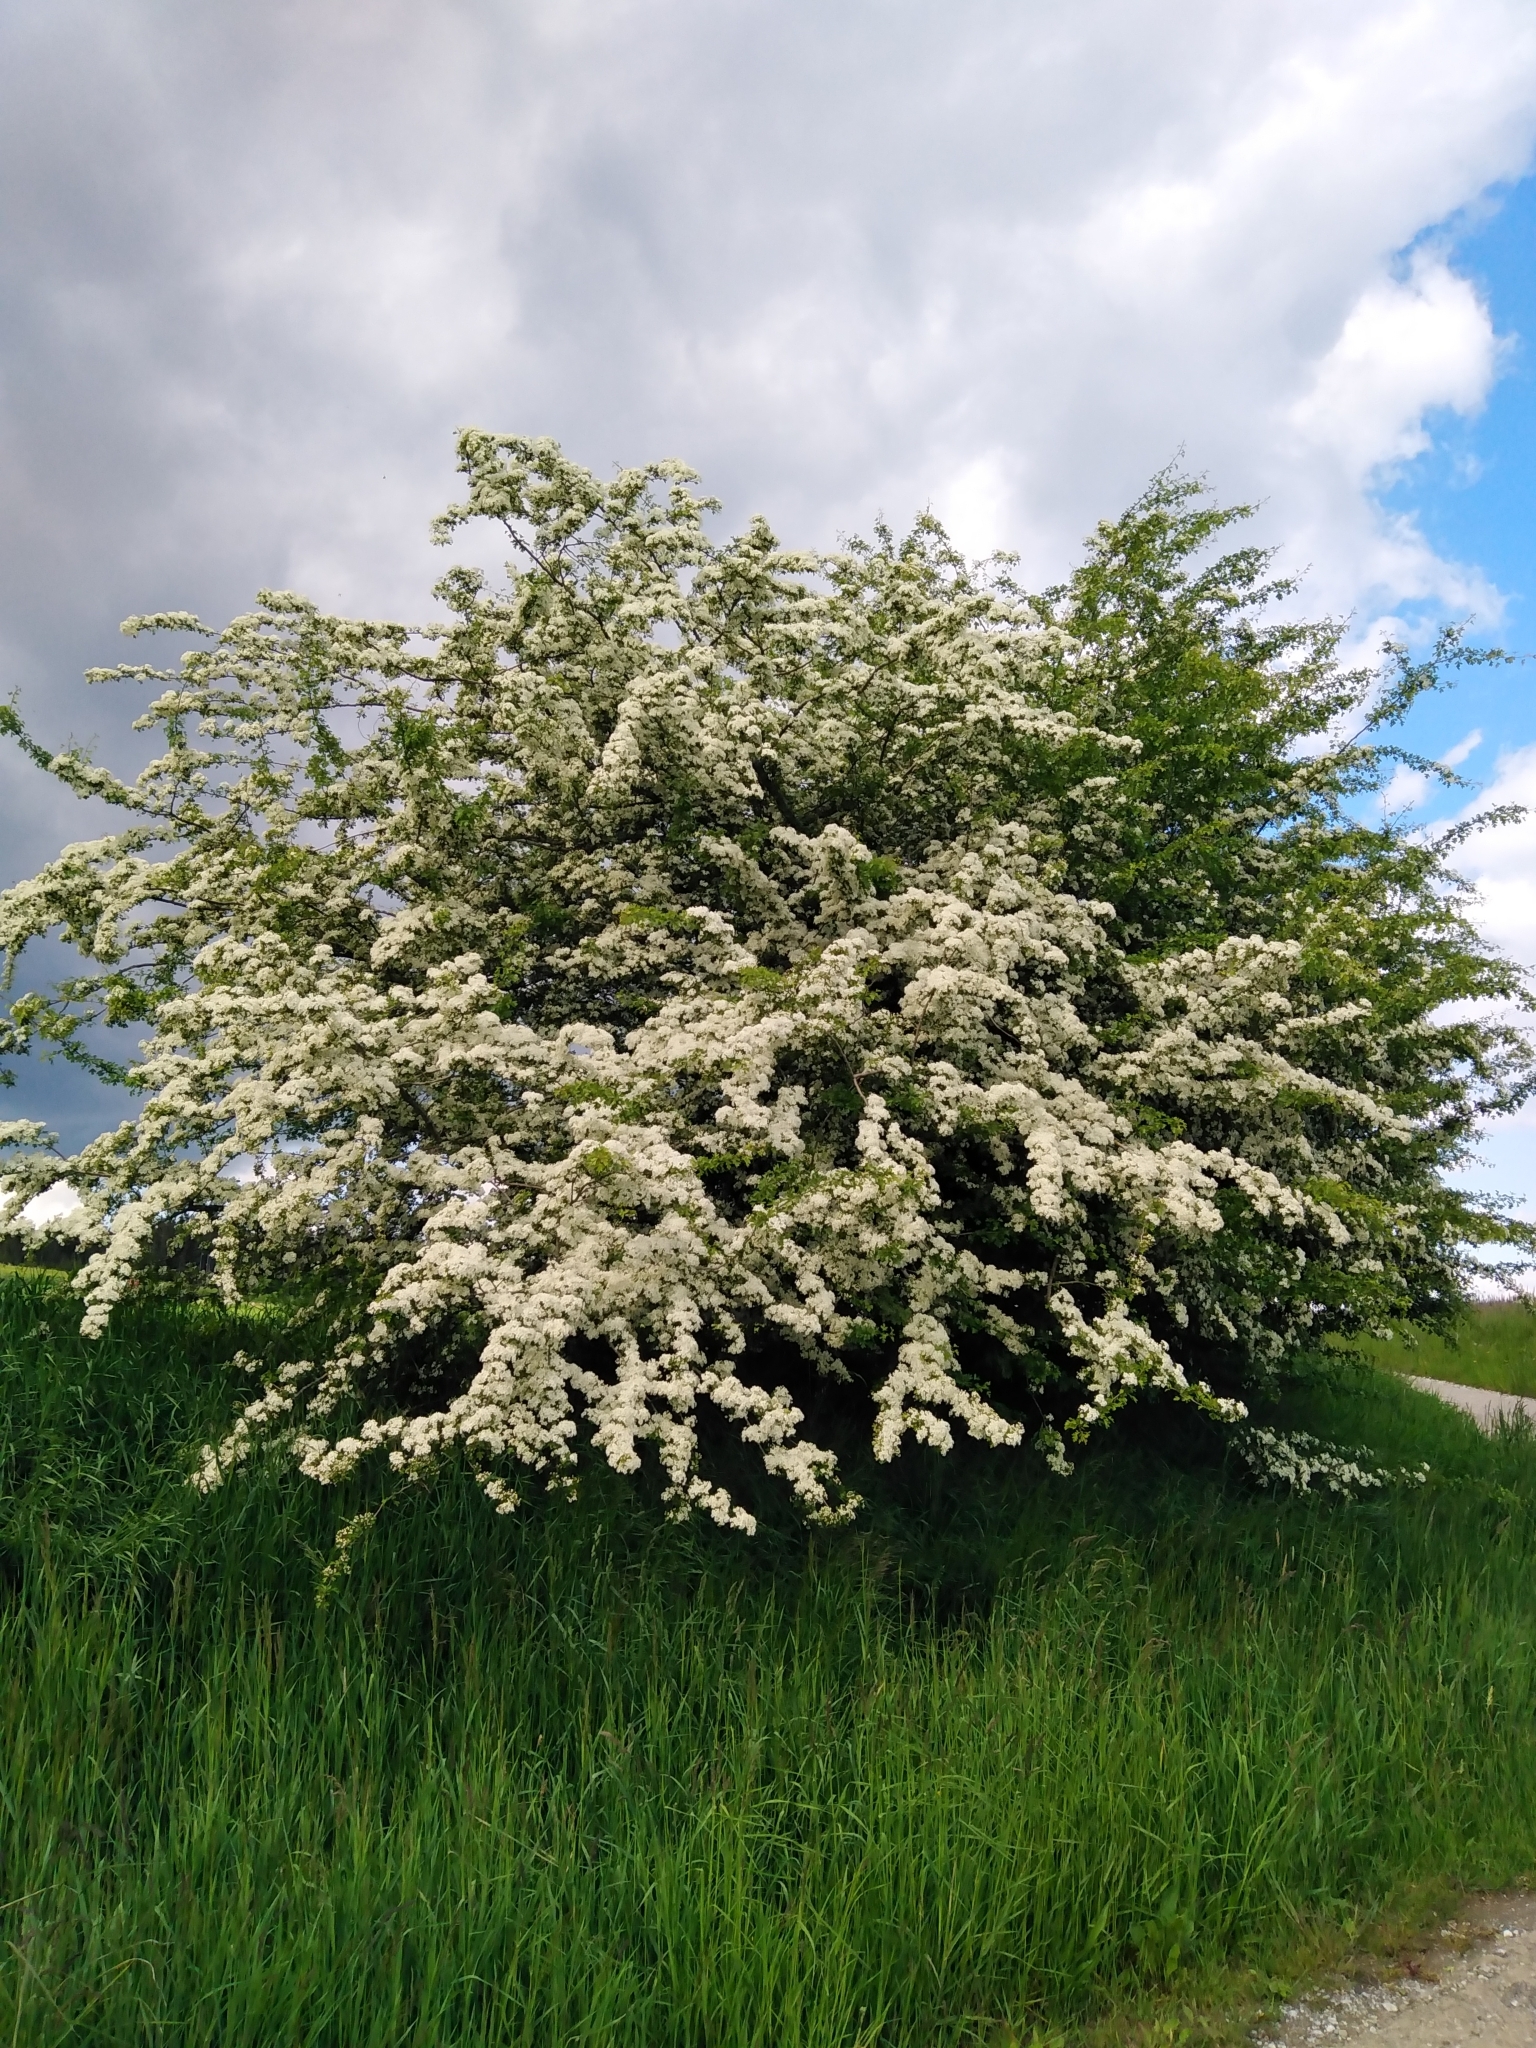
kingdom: Plantae
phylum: Tracheophyta
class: Magnoliopsida
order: Rosales
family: Rosaceae
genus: Crataegus
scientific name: Crataegus monogyna
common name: Hawthorn
